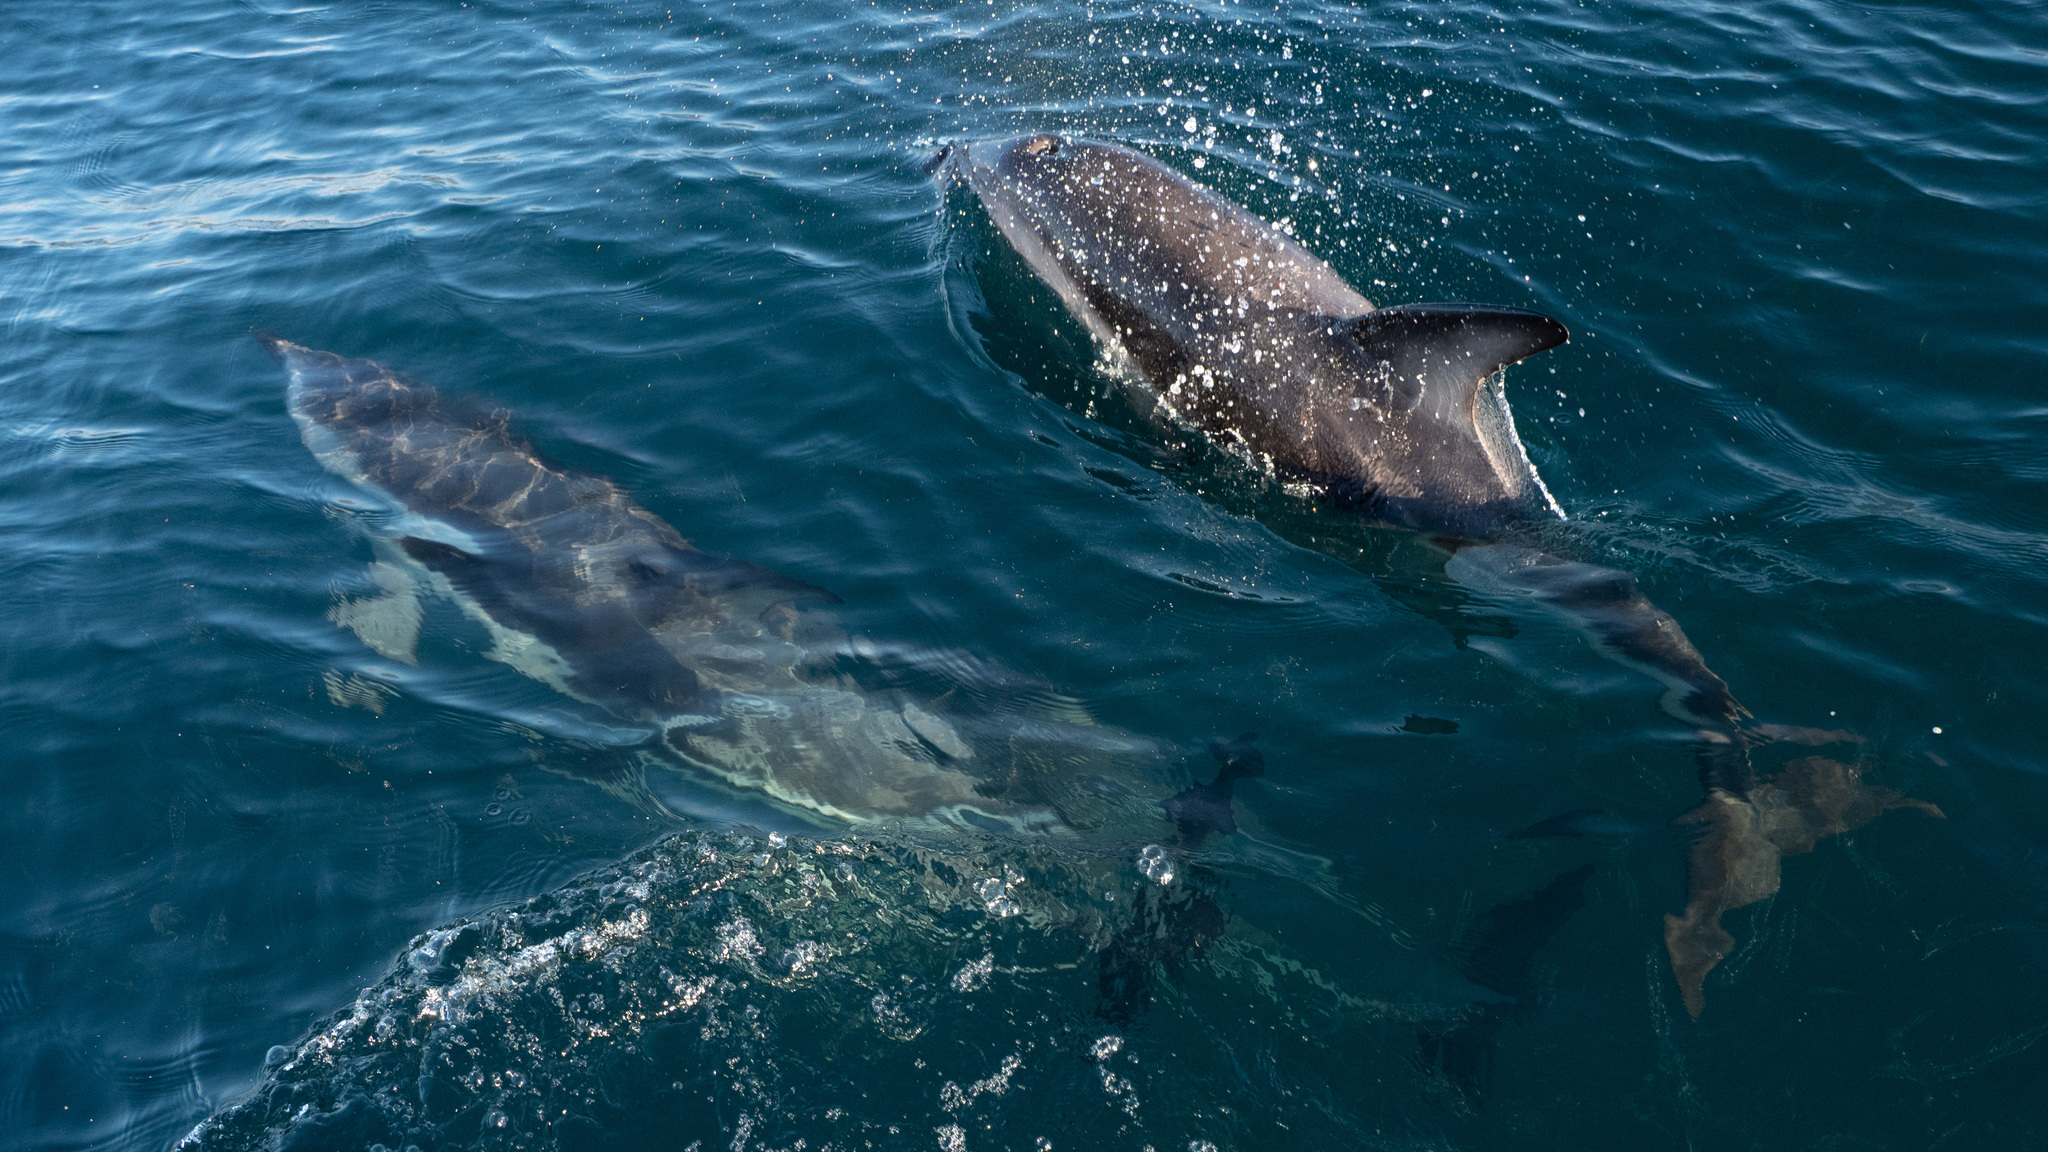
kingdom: Animalia
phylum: Chordata
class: Mammalia
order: Cetacea
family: Delphinidae
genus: Delphinus
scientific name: Delphinus delphis
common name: Common dolphin
